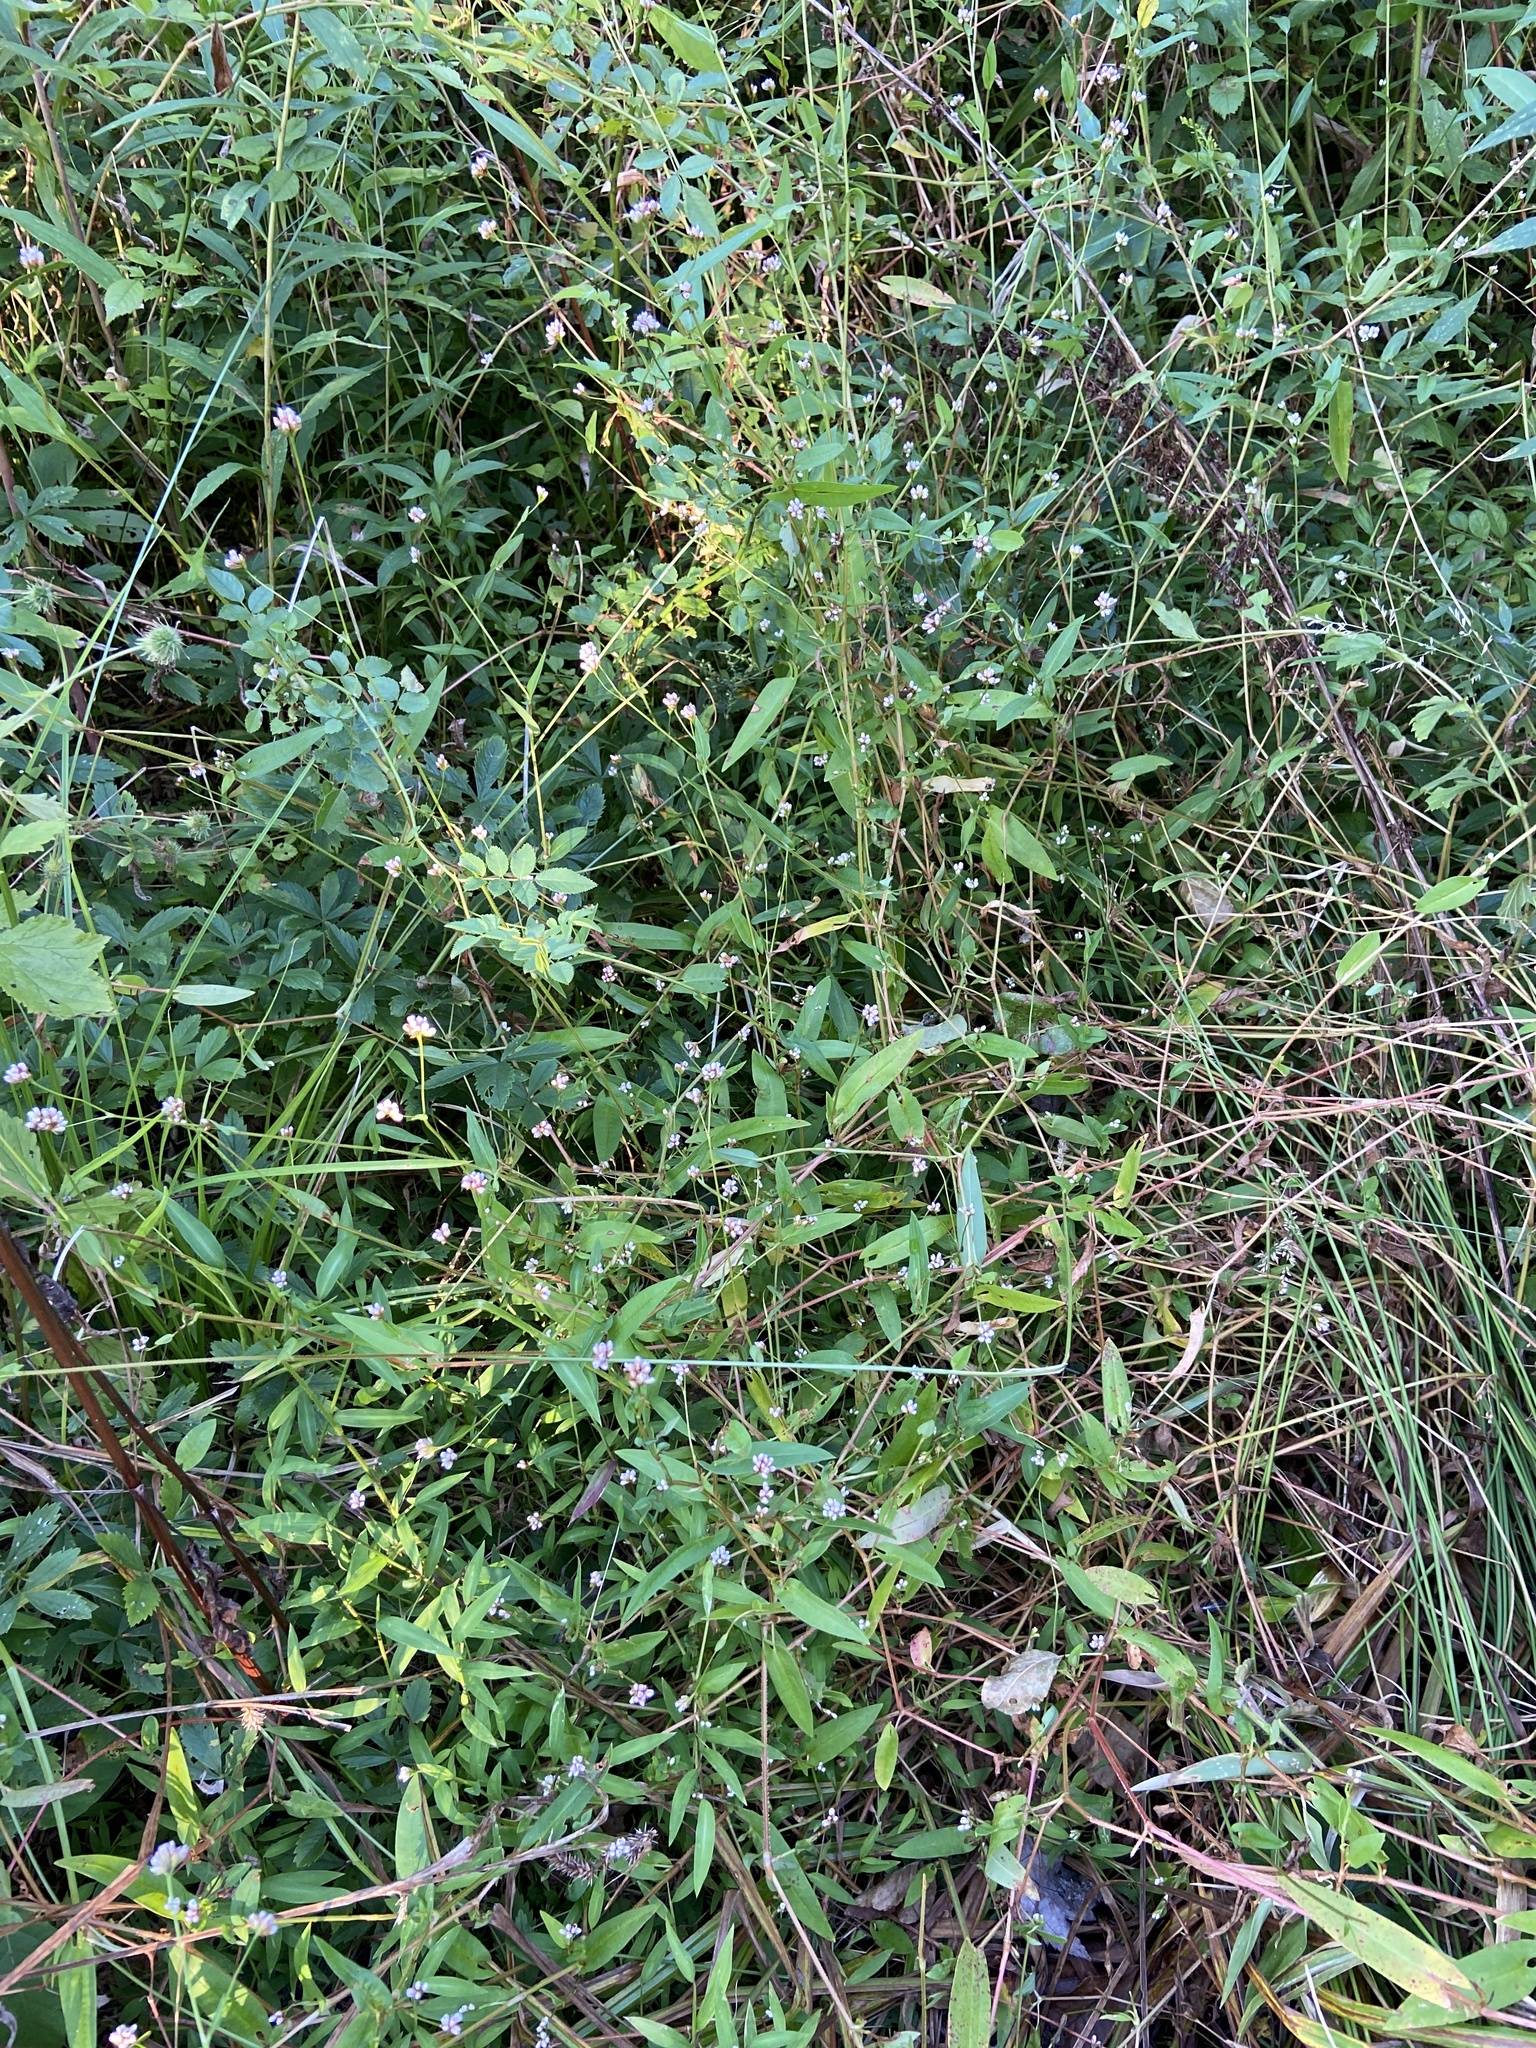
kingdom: Plantae
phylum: Tracheophyta
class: Magnoliopsida
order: Caryophyllales
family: Polygonaceae
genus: Persicaria
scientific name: Persicaria sagittata
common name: American tearthumb
